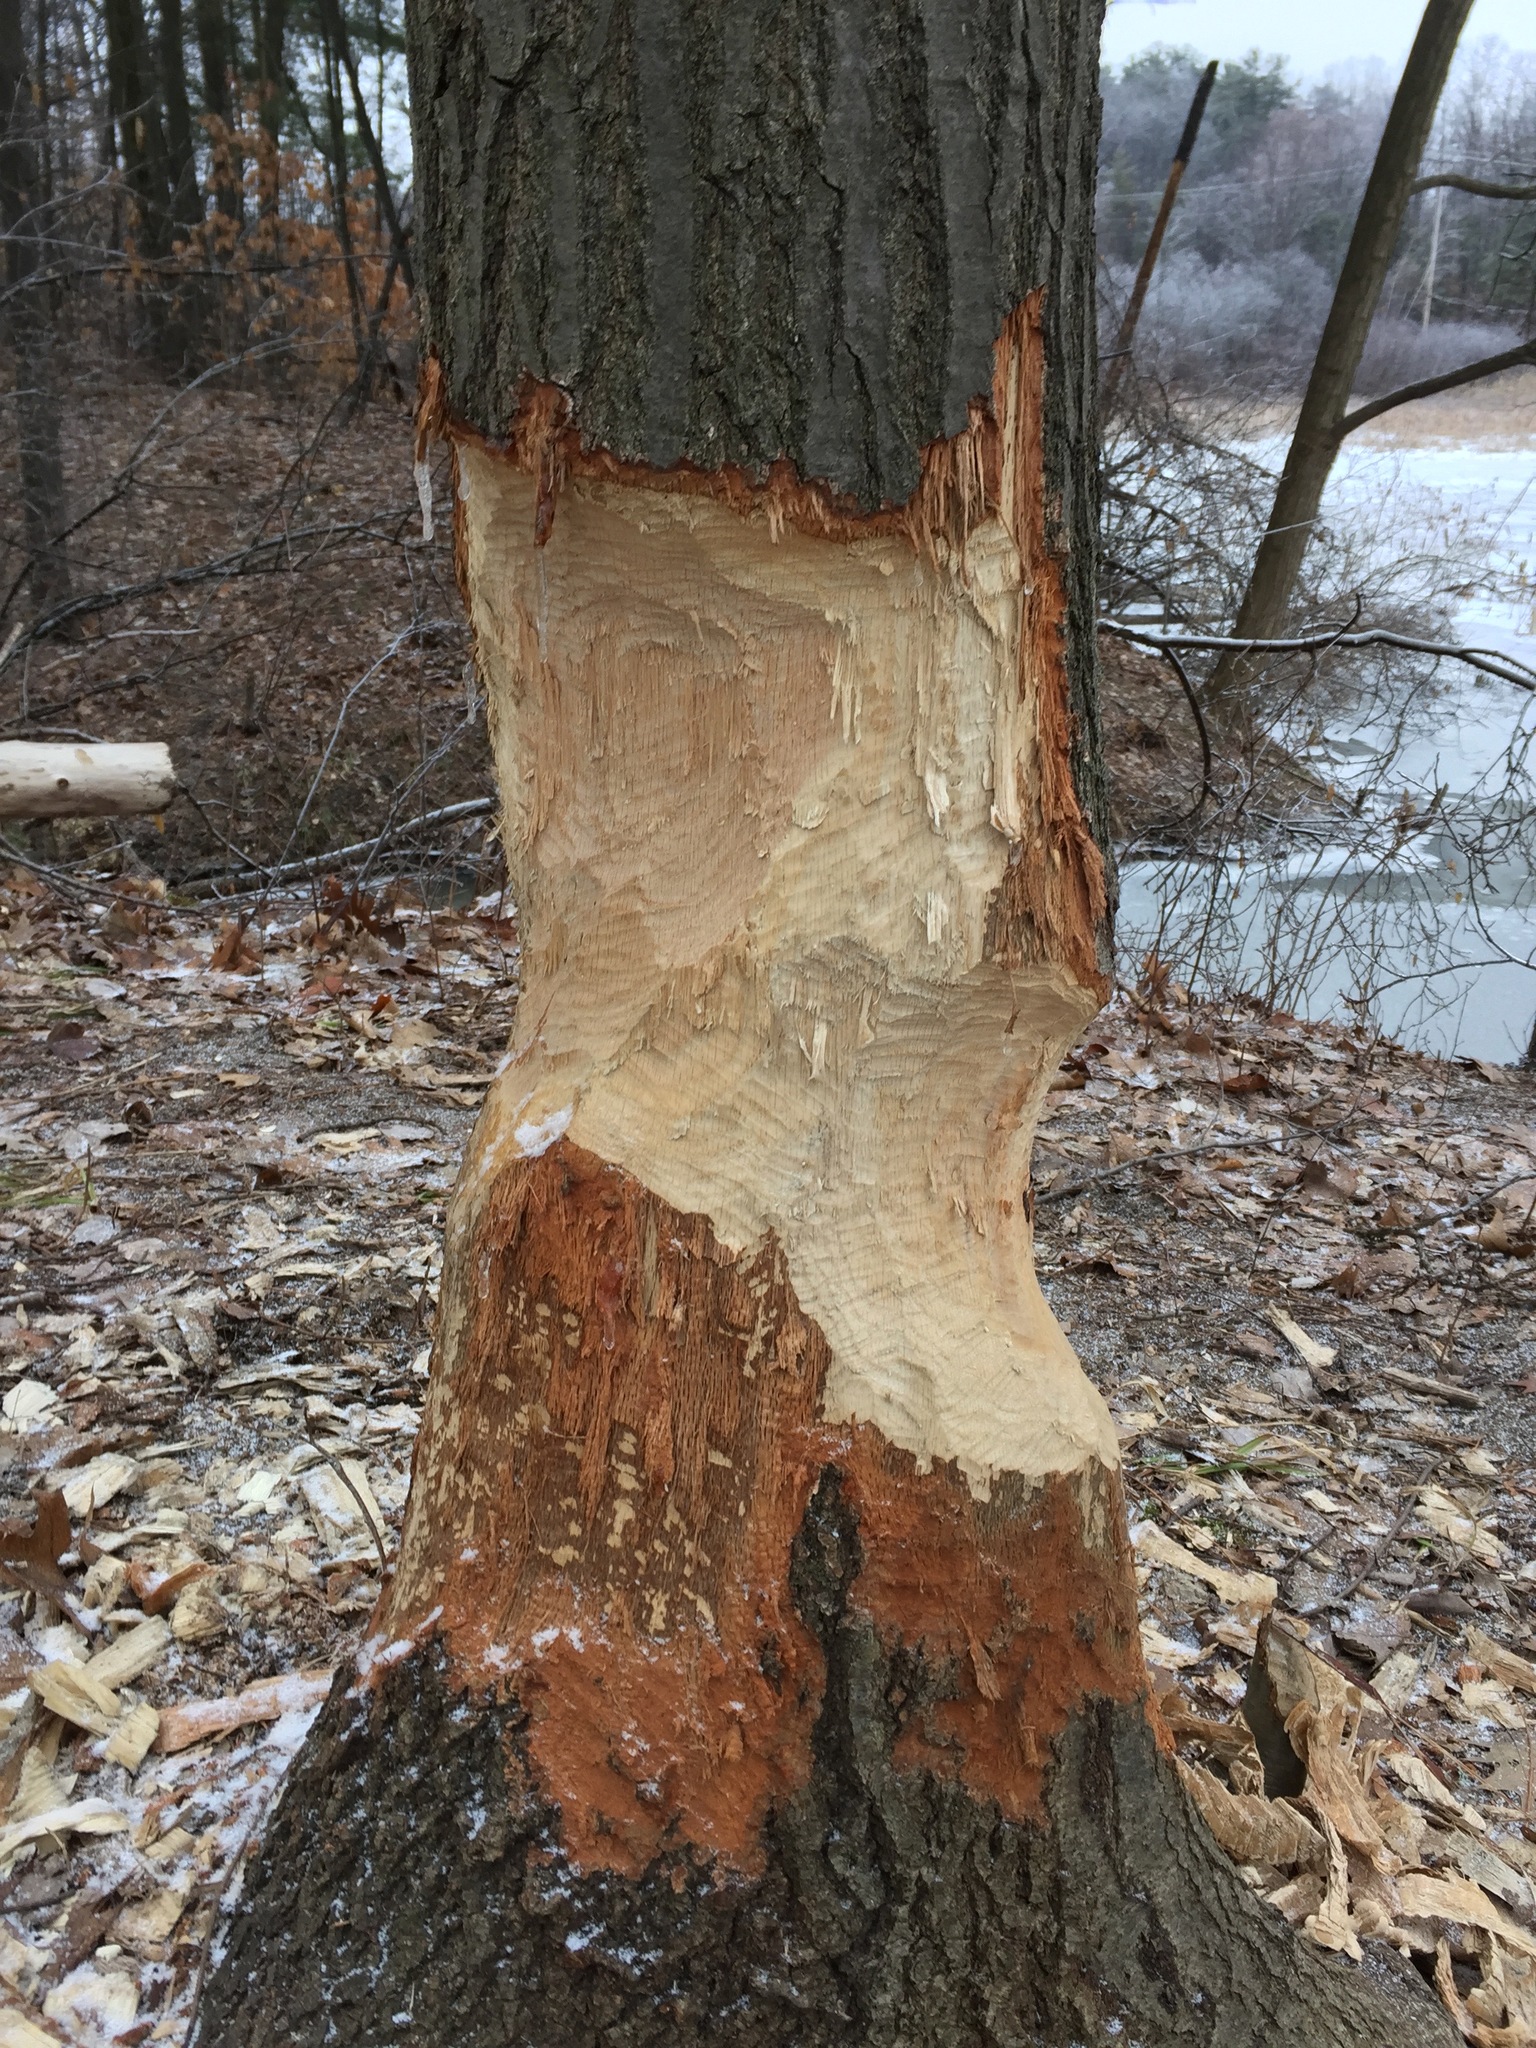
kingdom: Animalia
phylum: Chordata
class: Mammalia
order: Rodentia
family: Castoridae
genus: Castor
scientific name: Castor canadensis
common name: American beaver
